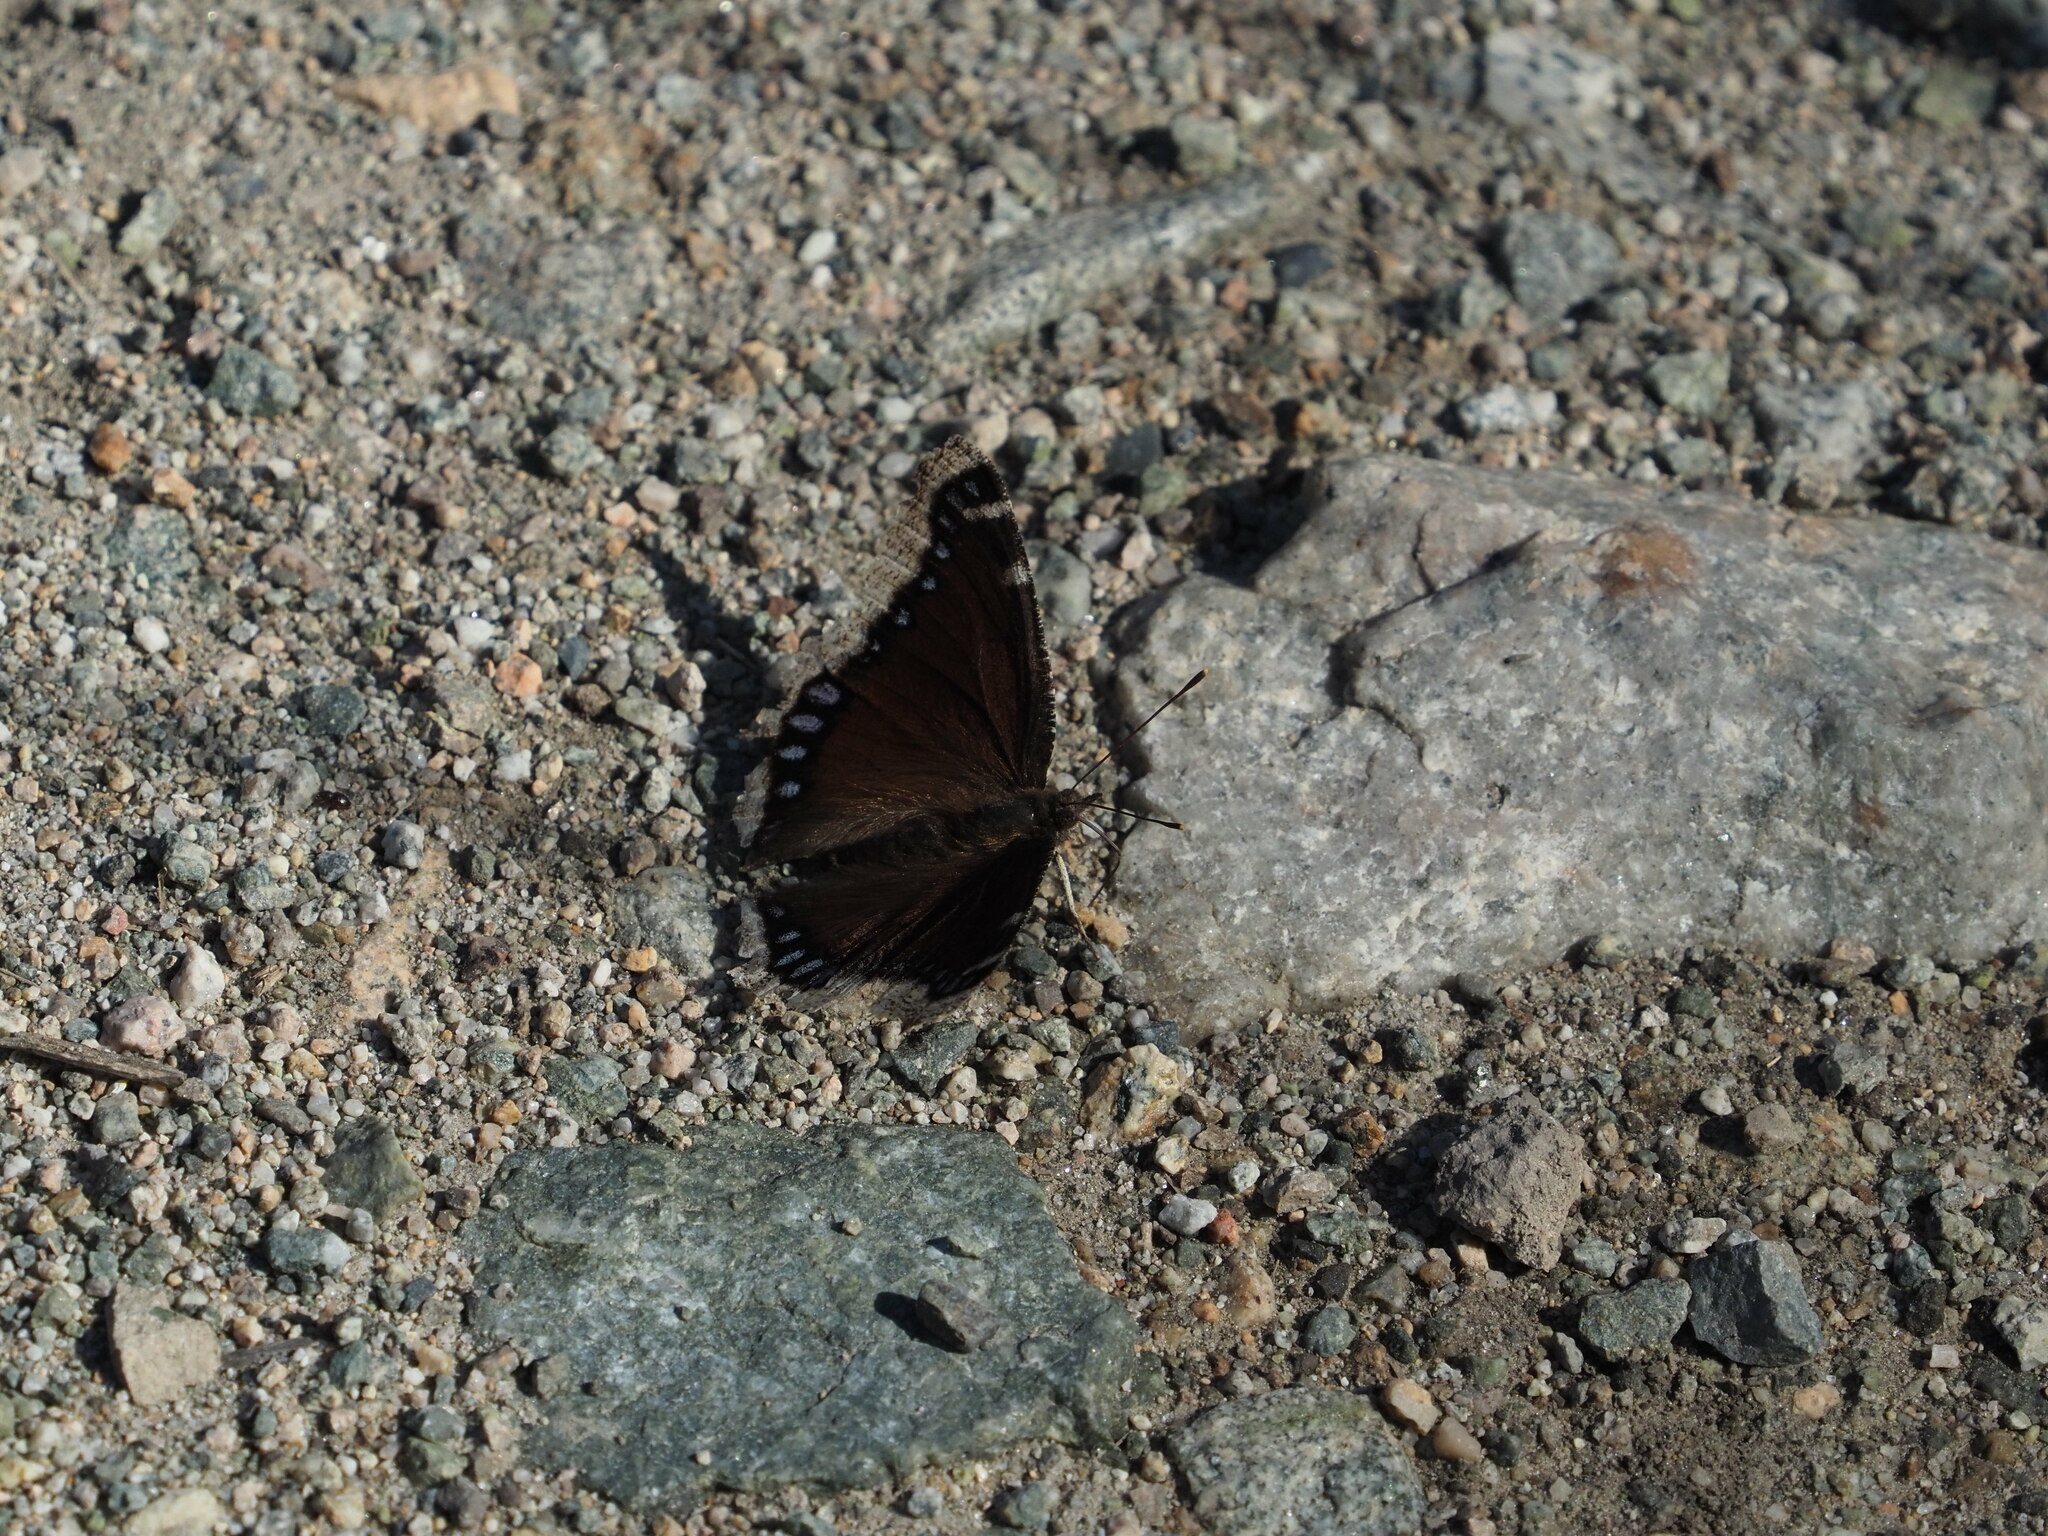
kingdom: Animalia
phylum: Arthropoda
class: Insecta
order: Lepidoptera
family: Nymphalidae
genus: Nymphalis
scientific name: Nymphalis antiopa
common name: Camberwell beauty
